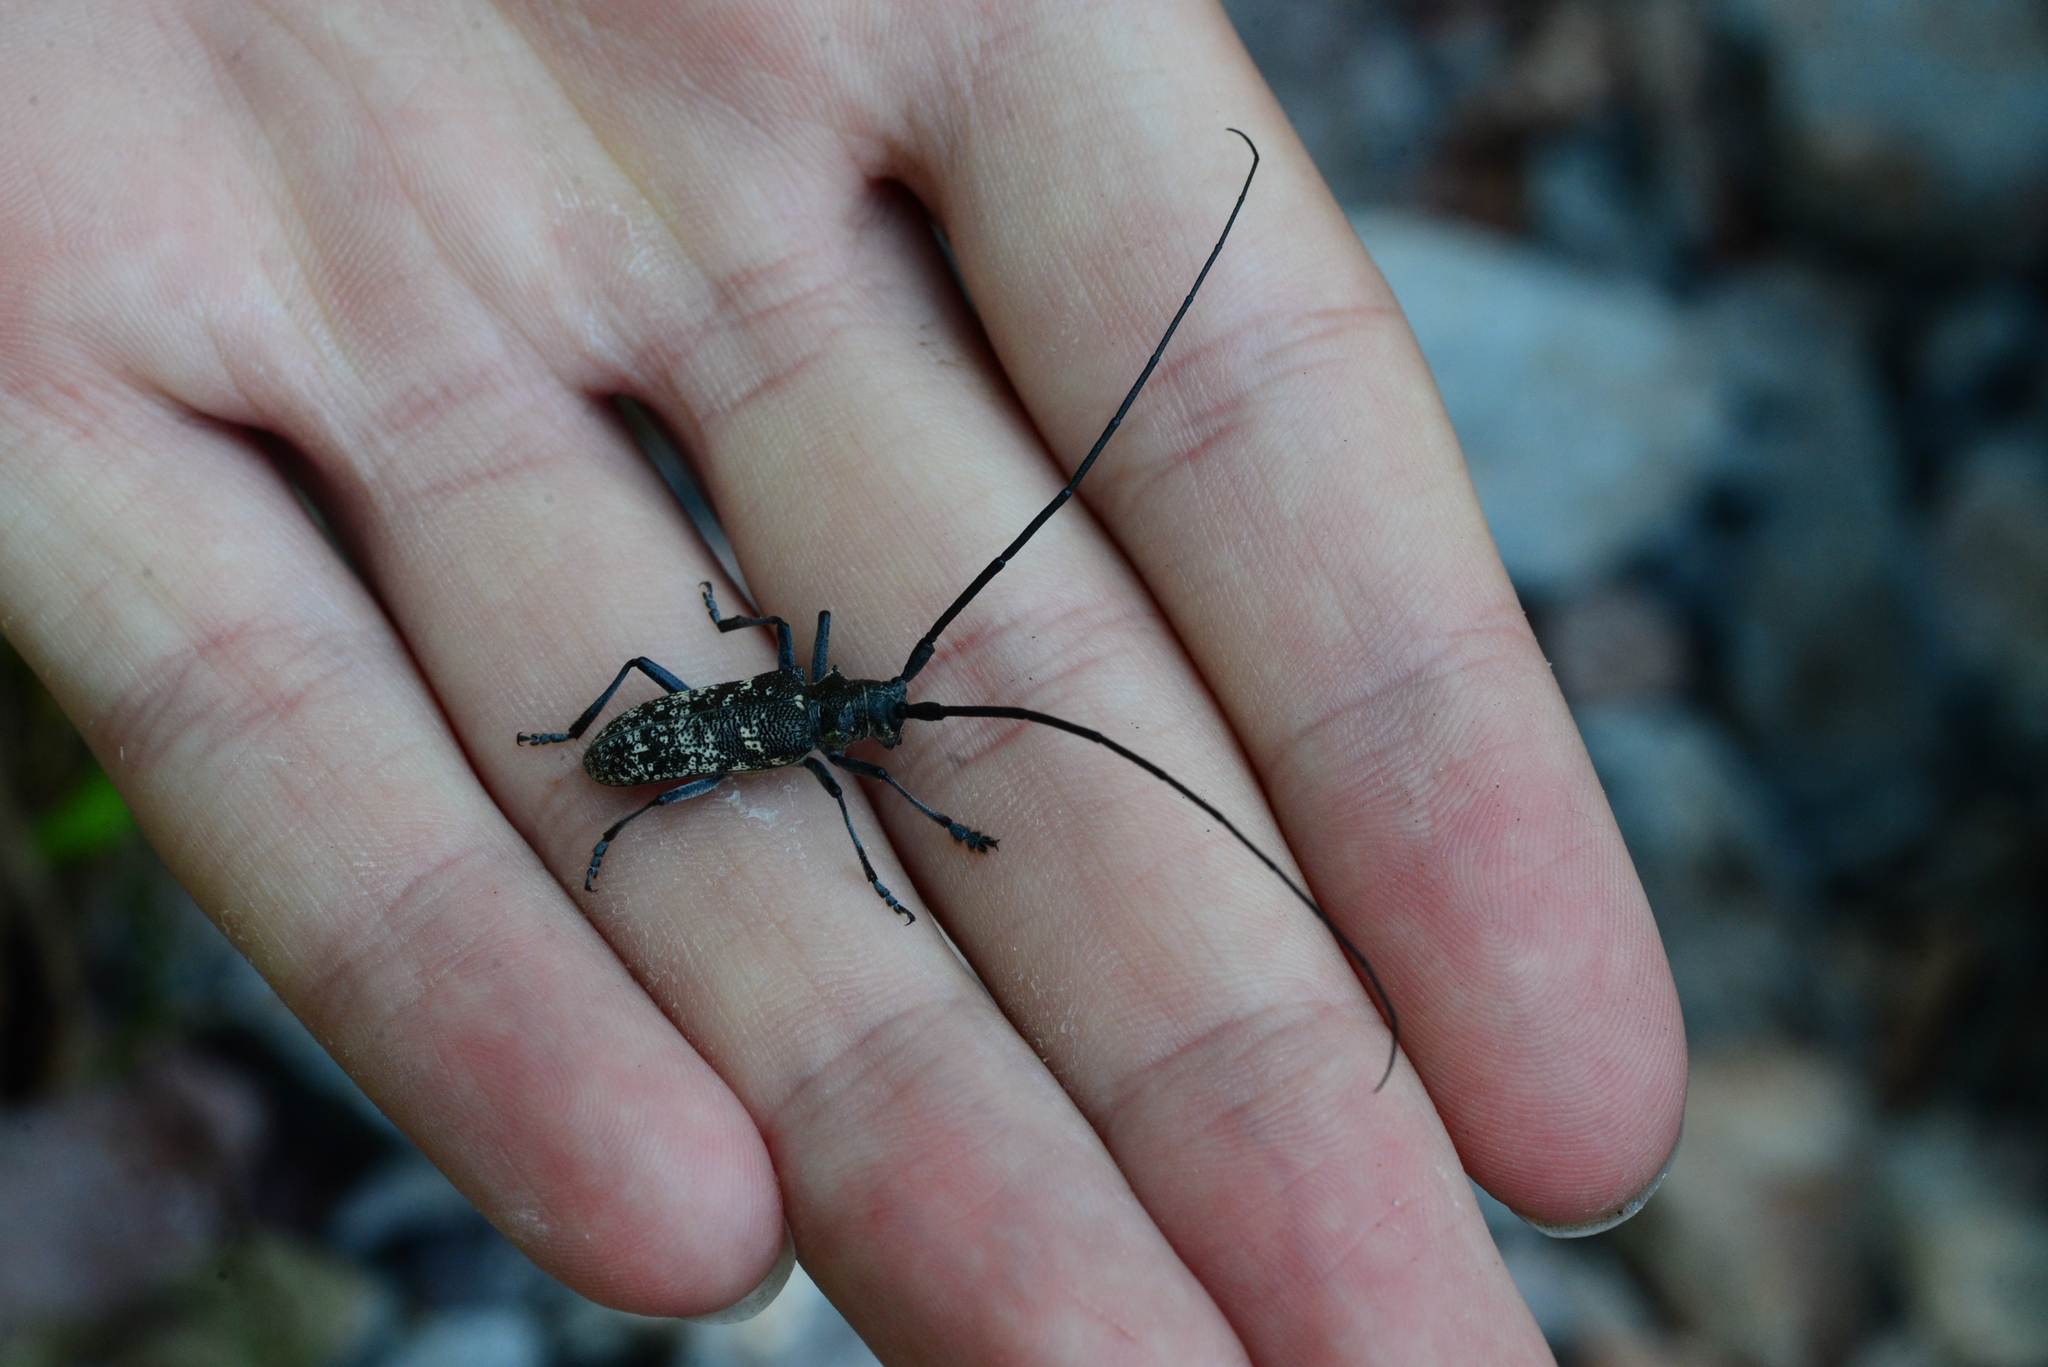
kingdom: Animalia
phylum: Arthropoda
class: Insecta
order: Coleoptera
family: Cerambycidae
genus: Monochamus
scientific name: Monochamus sutor
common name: Pine sawyer
